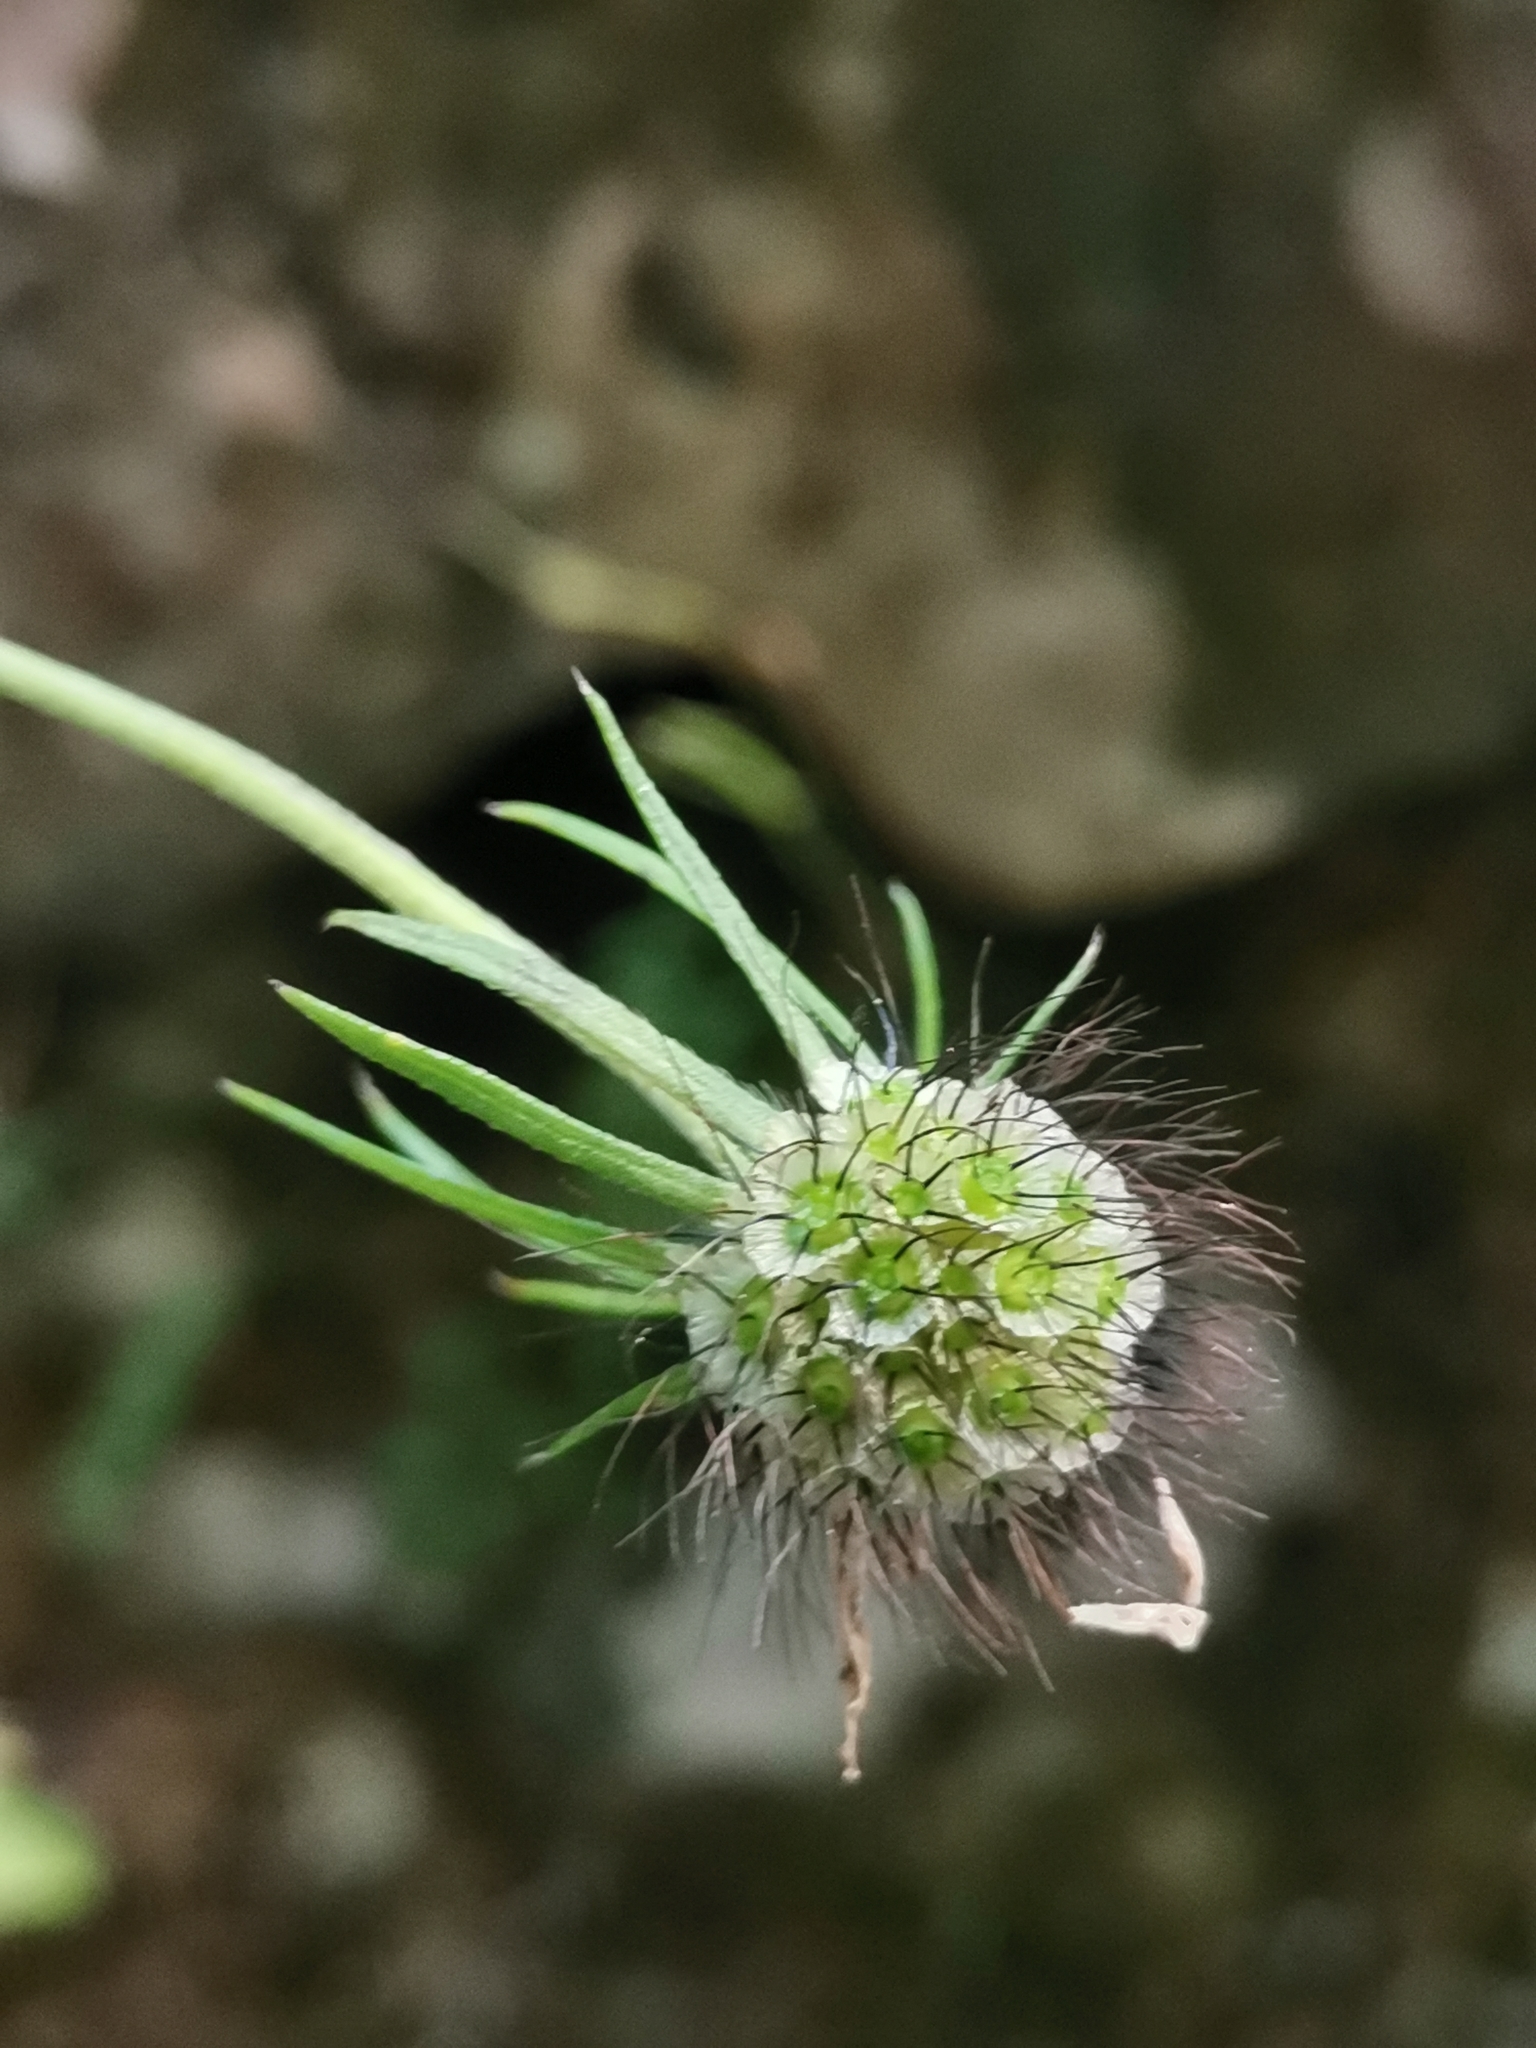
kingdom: Plantae
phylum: Tracheophyta
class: Magnoliopsida
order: Dipsacales
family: Caprifoliaceae
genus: Scabiosa
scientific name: Scabiosa columbaria
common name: Small scabious
